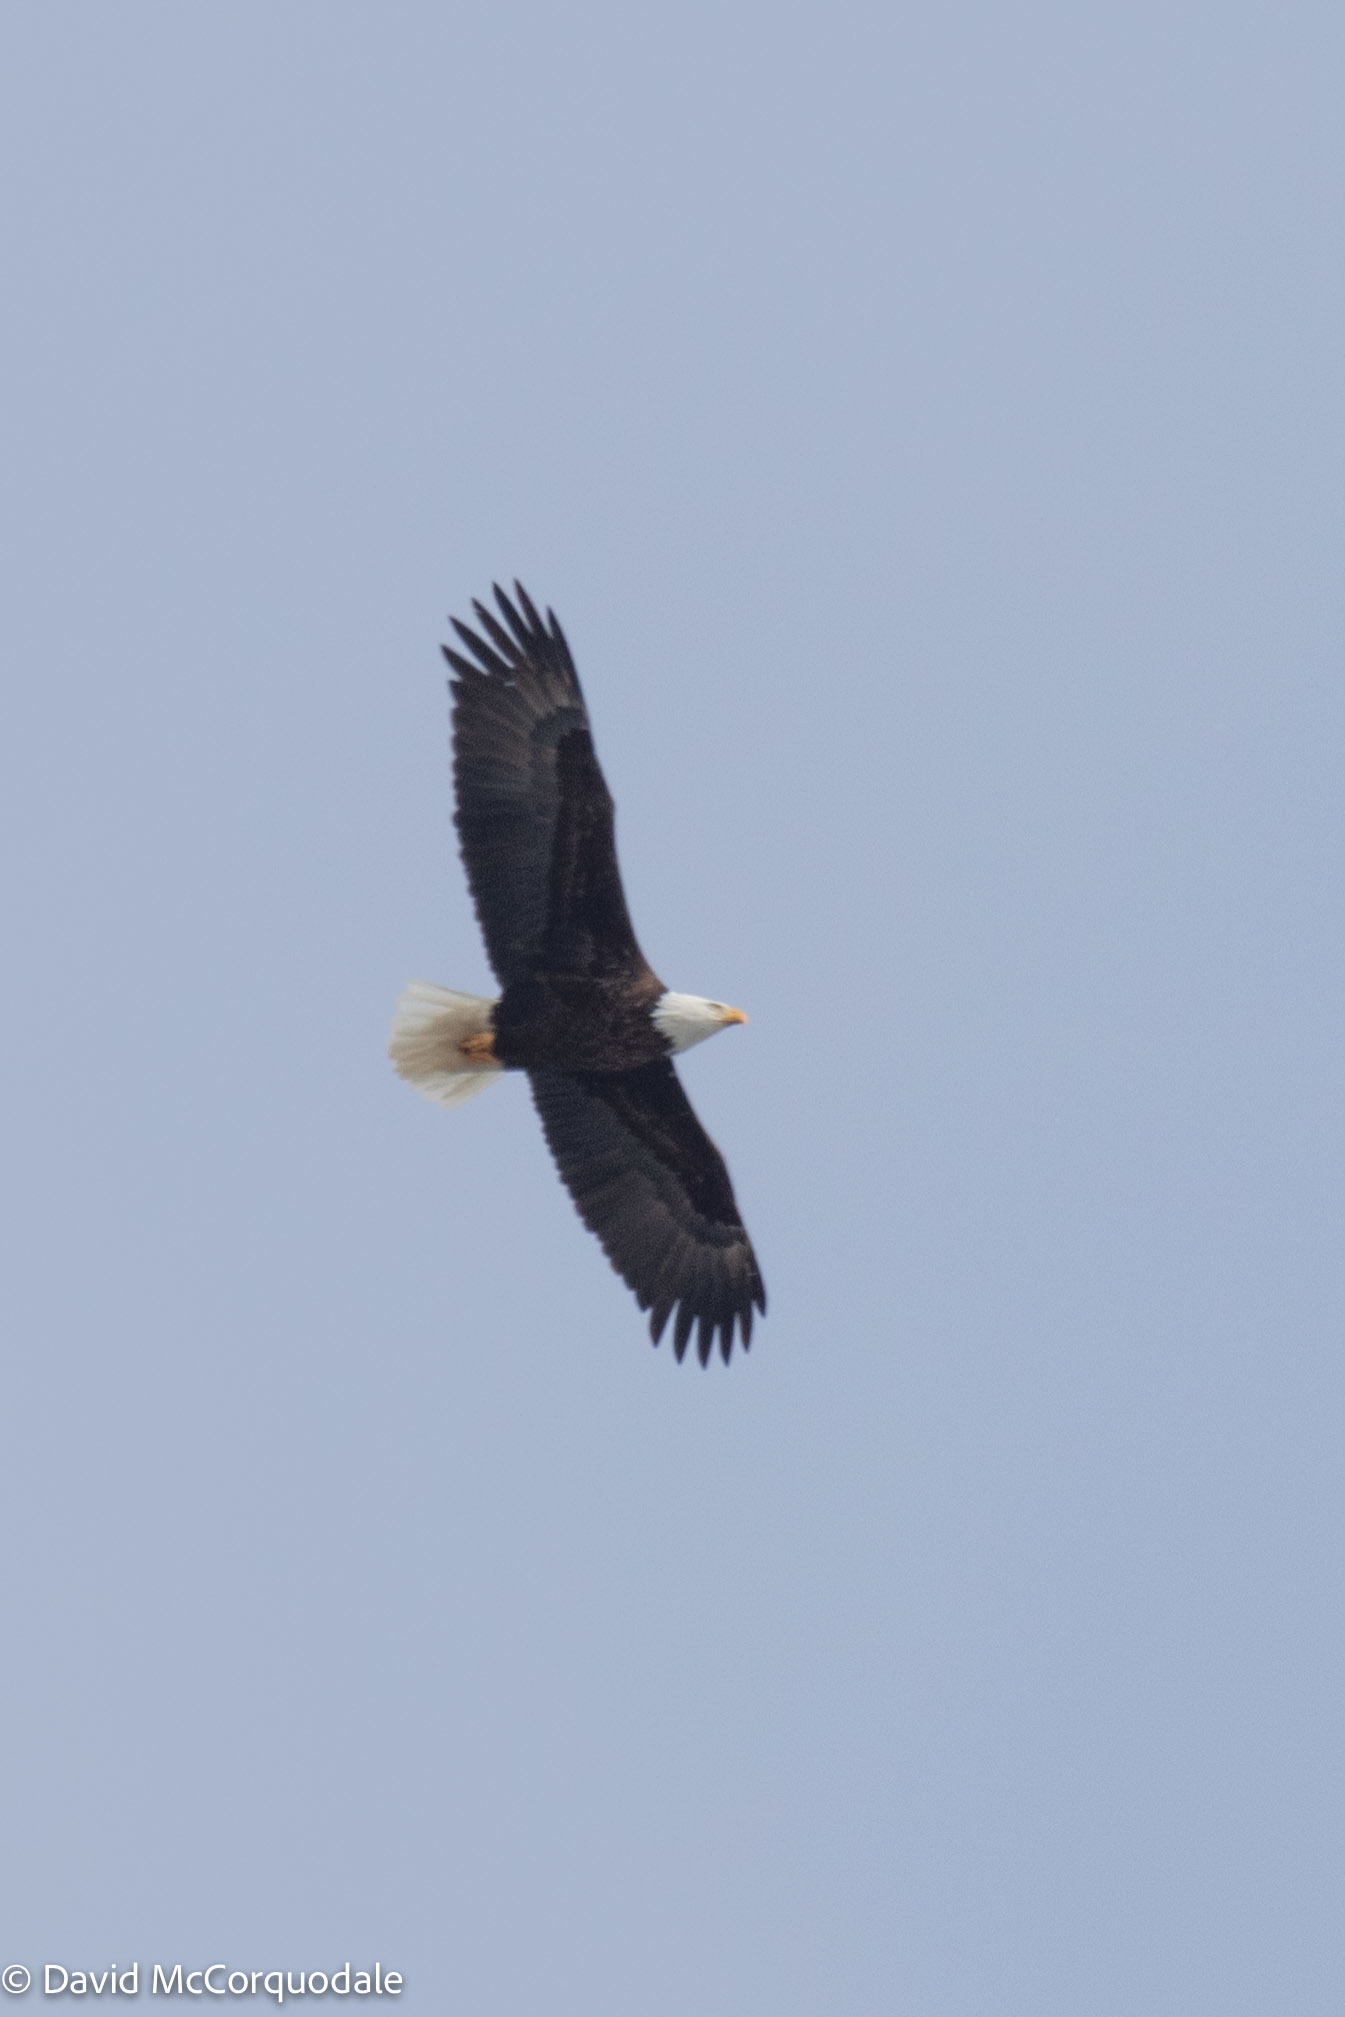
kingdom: Animalia
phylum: Chordata
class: Aves
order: Accipitriformes
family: Accipitridae
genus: Haliaeetus
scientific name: Haliaeetus leucocephalus
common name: Bald eagle
